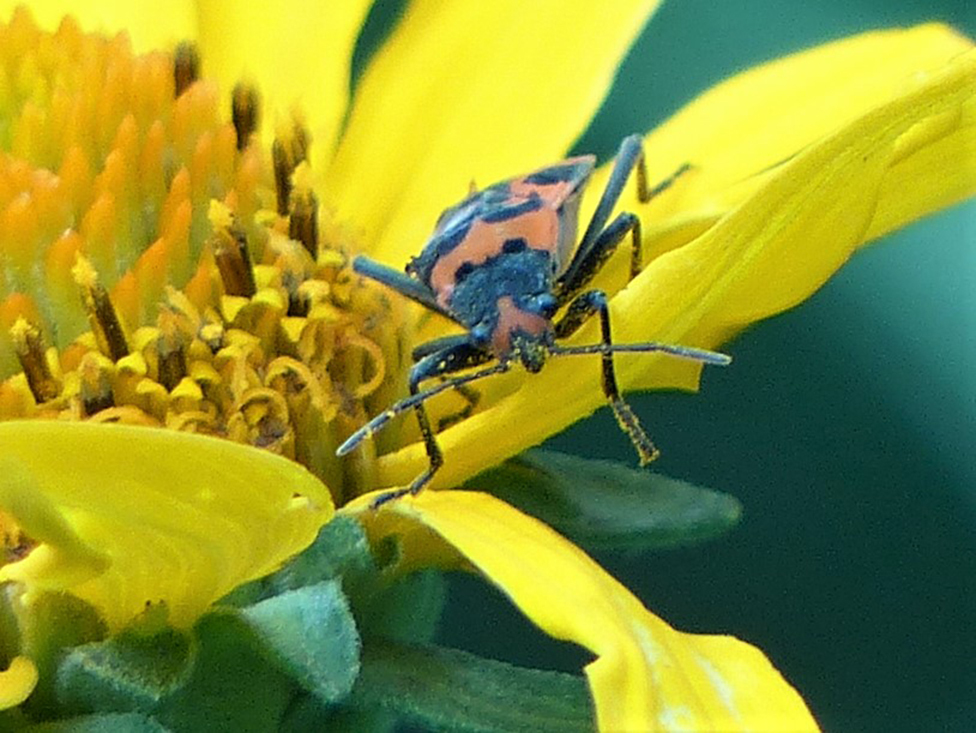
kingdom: Animalia
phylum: Arthropoda
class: Insecta
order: Hemiptera
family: Lygaeidae
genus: Lygaeus
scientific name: Lygaeus turcicus
